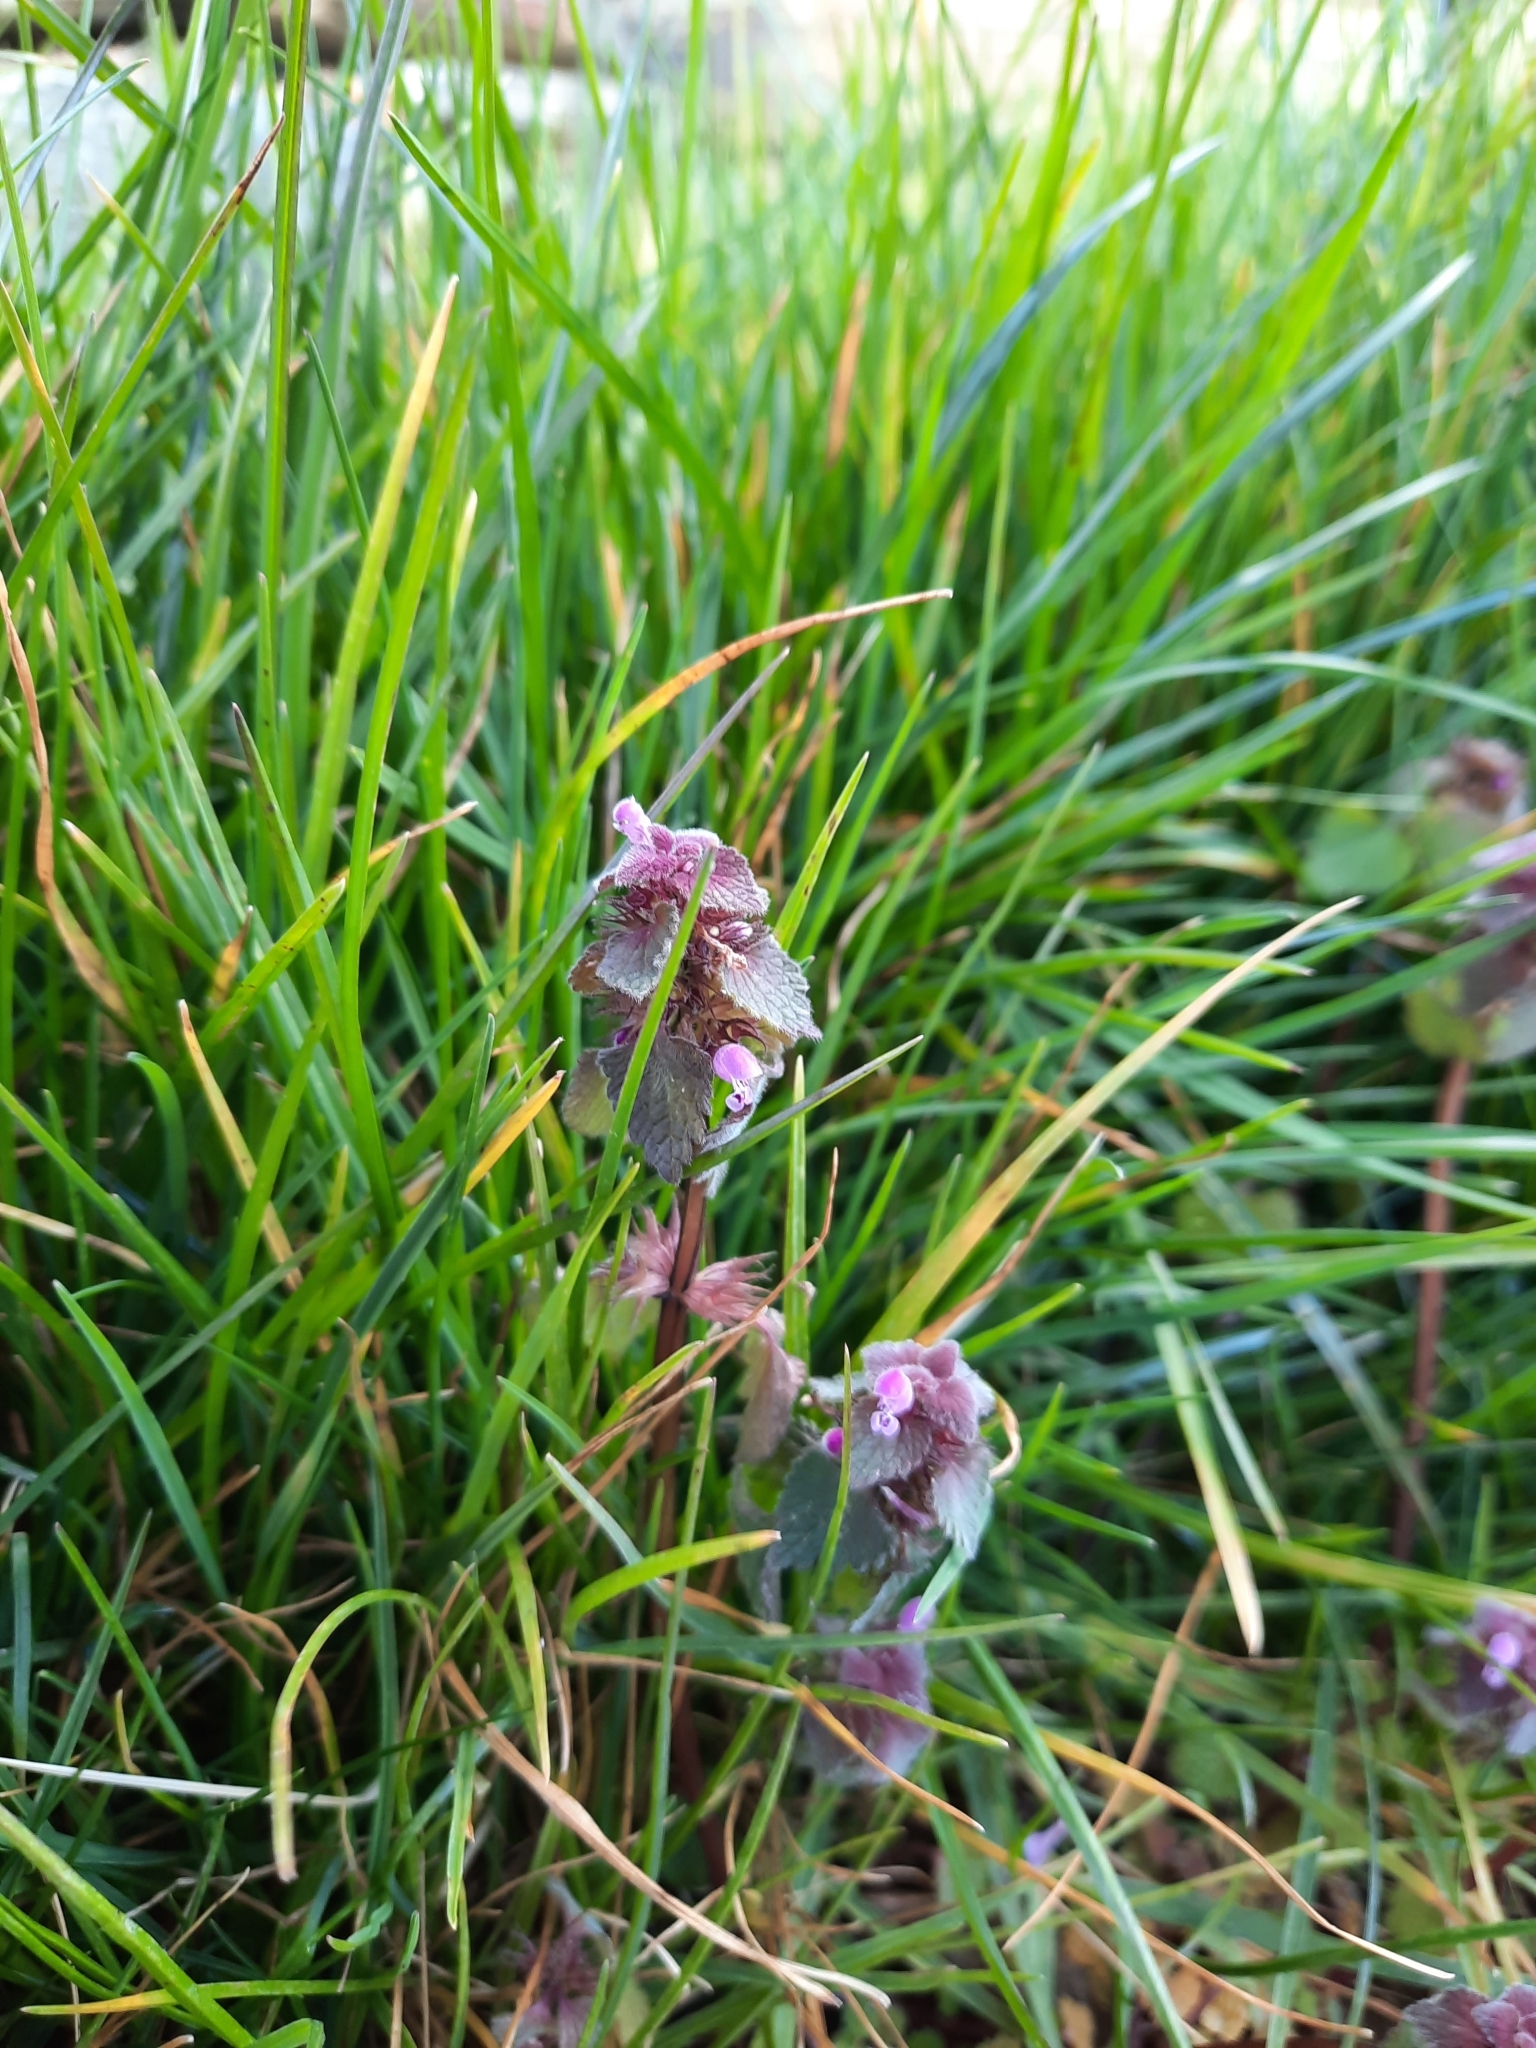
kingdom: Plantae
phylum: Tracheophyta
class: Magnoliopsida
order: Lamiales
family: Lamiaceae
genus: Lamium
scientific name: Lamium purpureum
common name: Red dead-nettle
